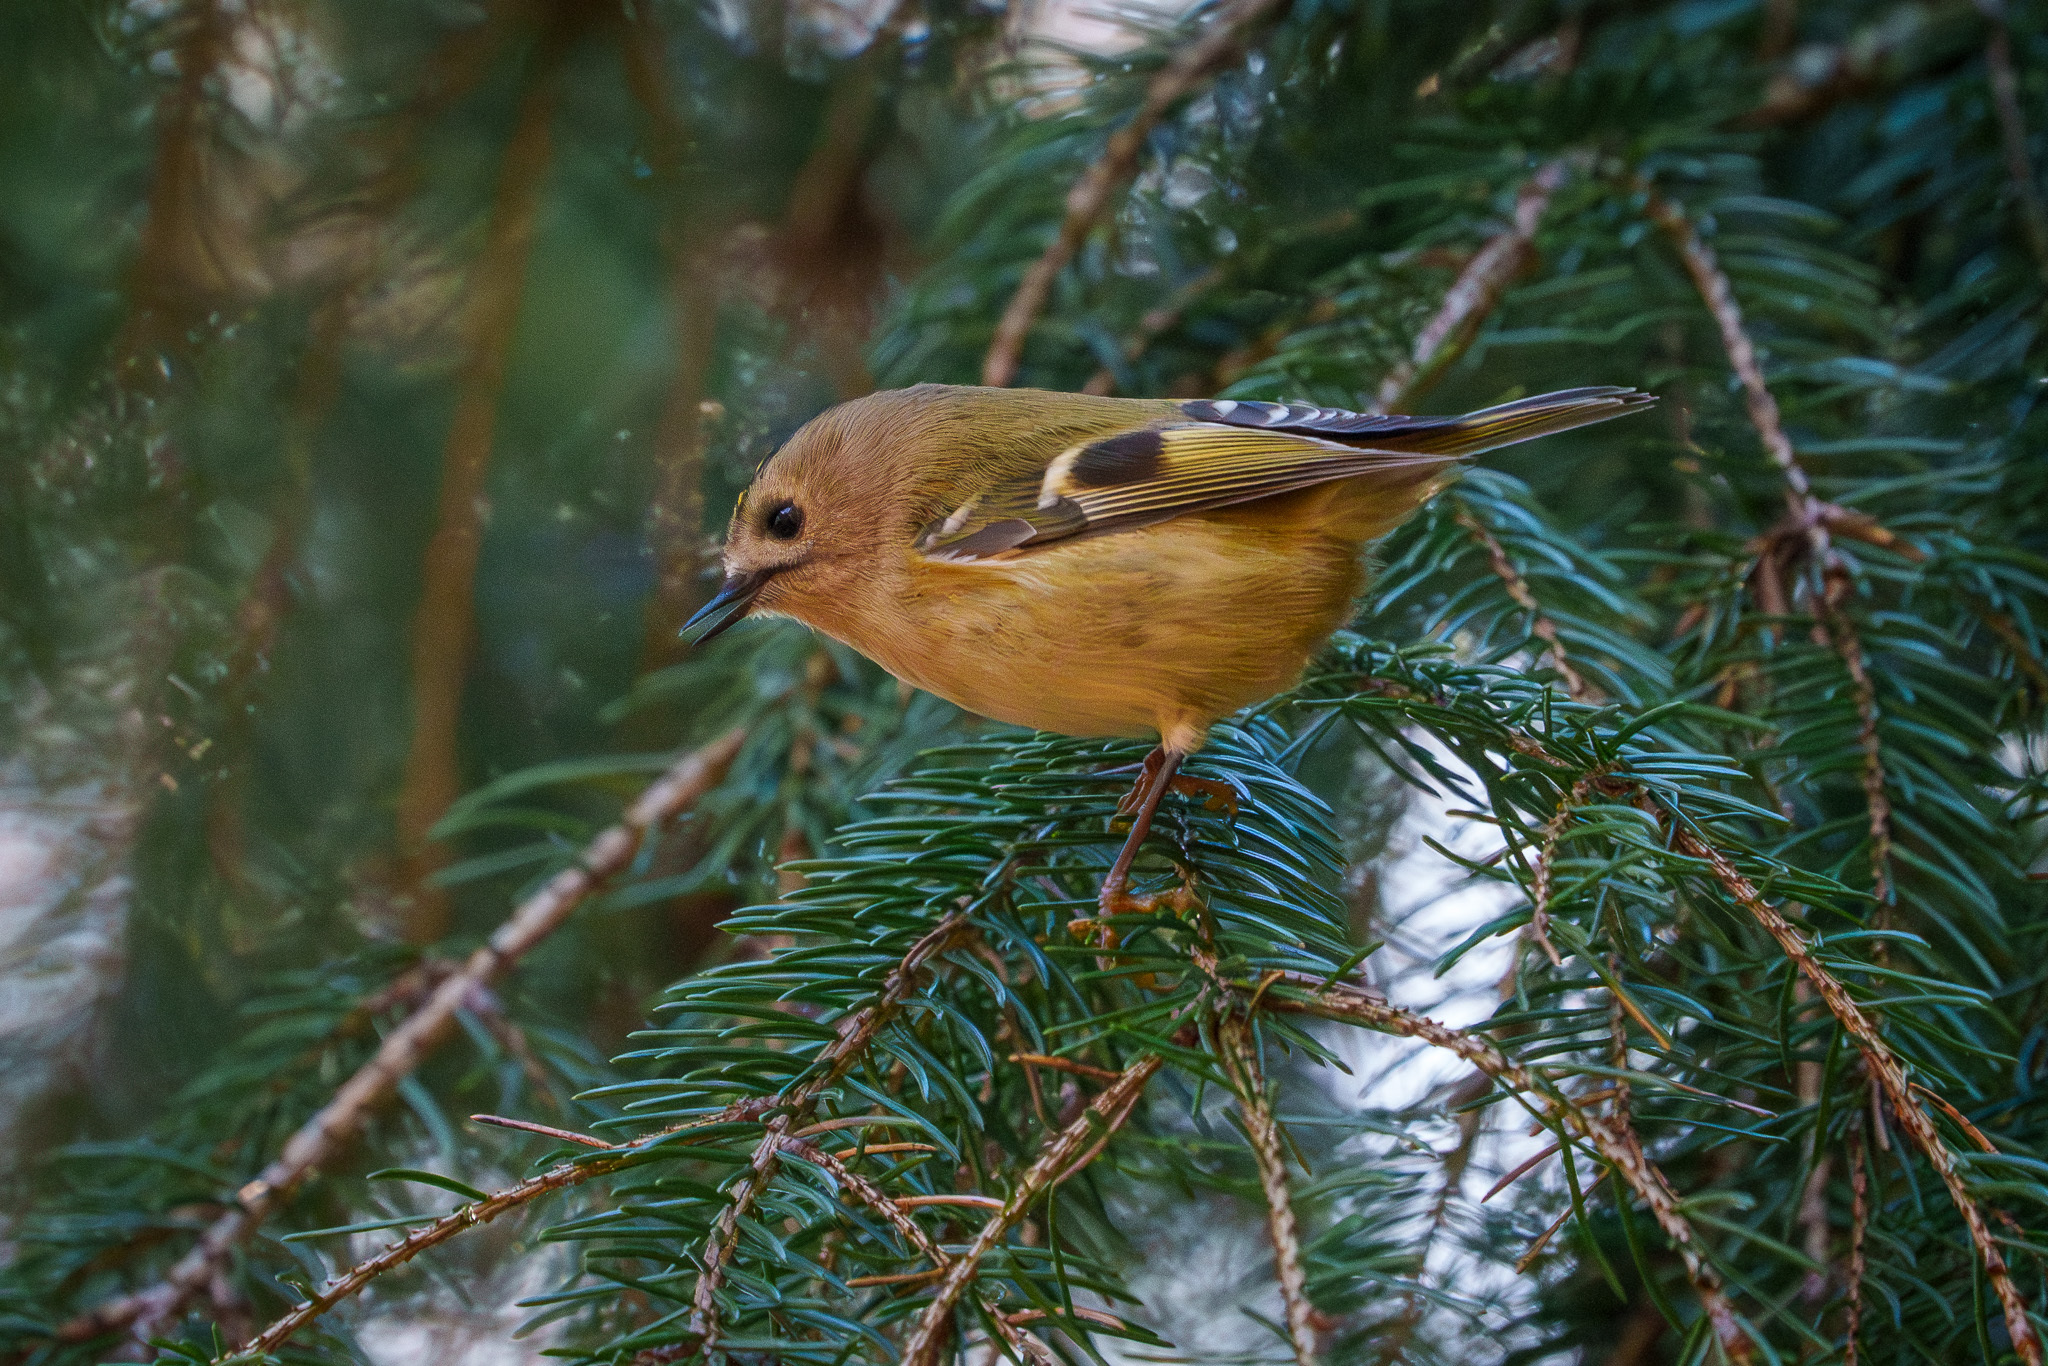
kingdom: Animalia
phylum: Chordata
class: Aves
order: Passeriformes
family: Regulidae
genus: Regulus
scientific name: Regulus regulus
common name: Goldcrest
